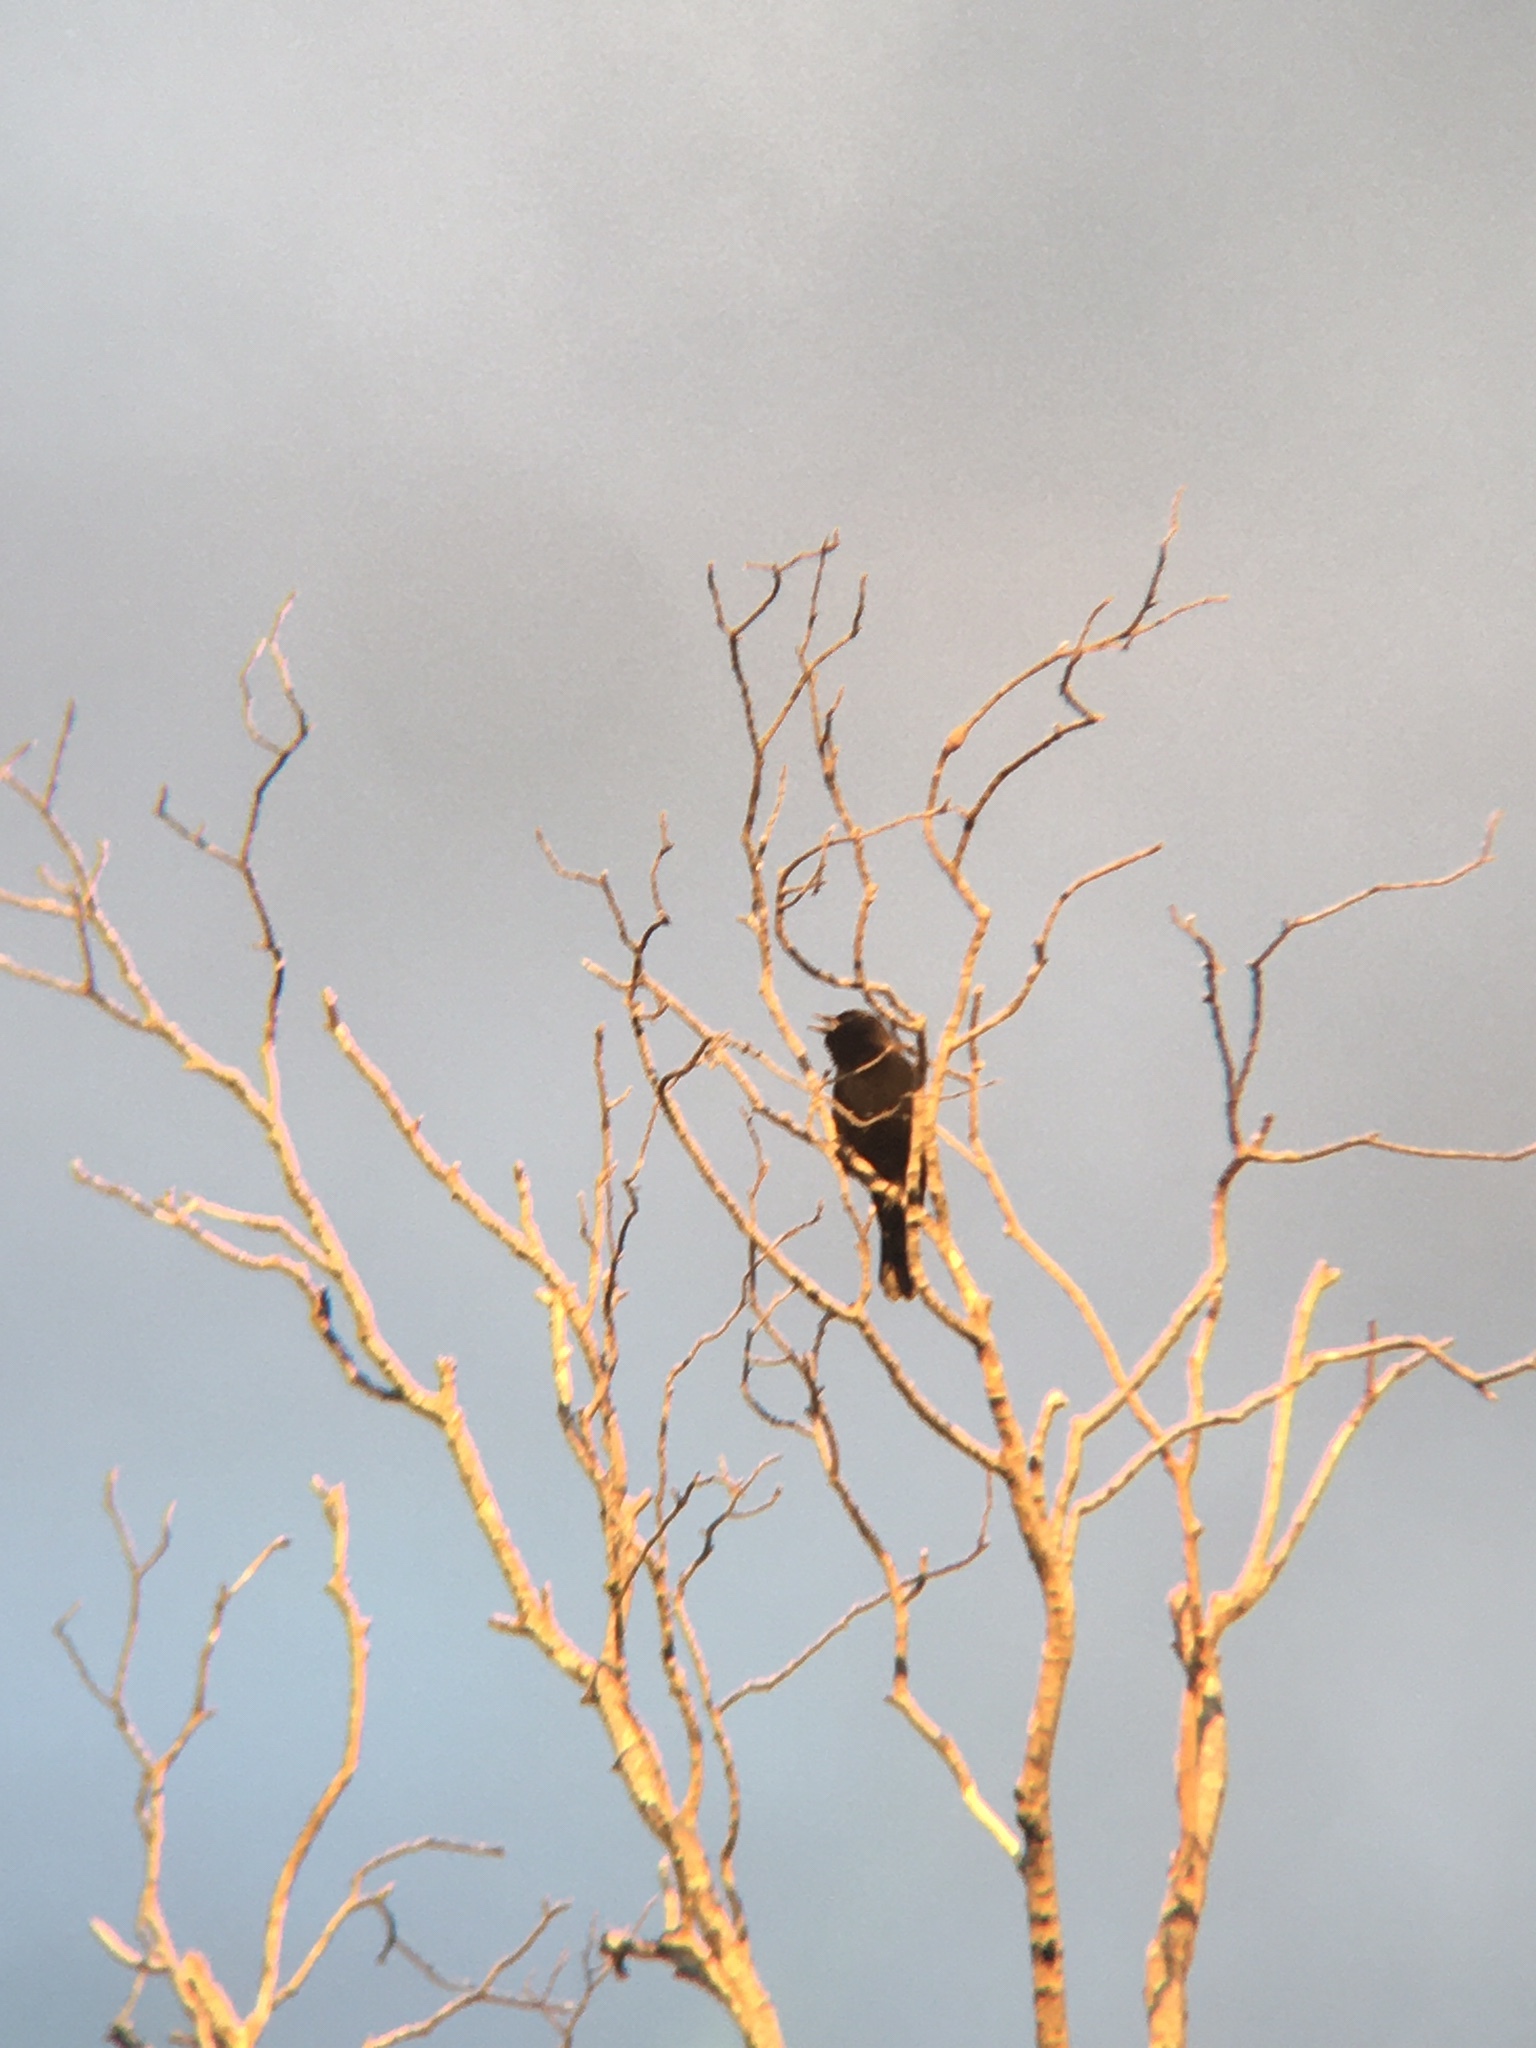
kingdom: Animalia
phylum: Chordata
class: Aves
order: Passeriformes
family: Icteridae
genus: Agelaius
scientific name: Agelaius phoeniceus
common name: Red-winged blackbird
